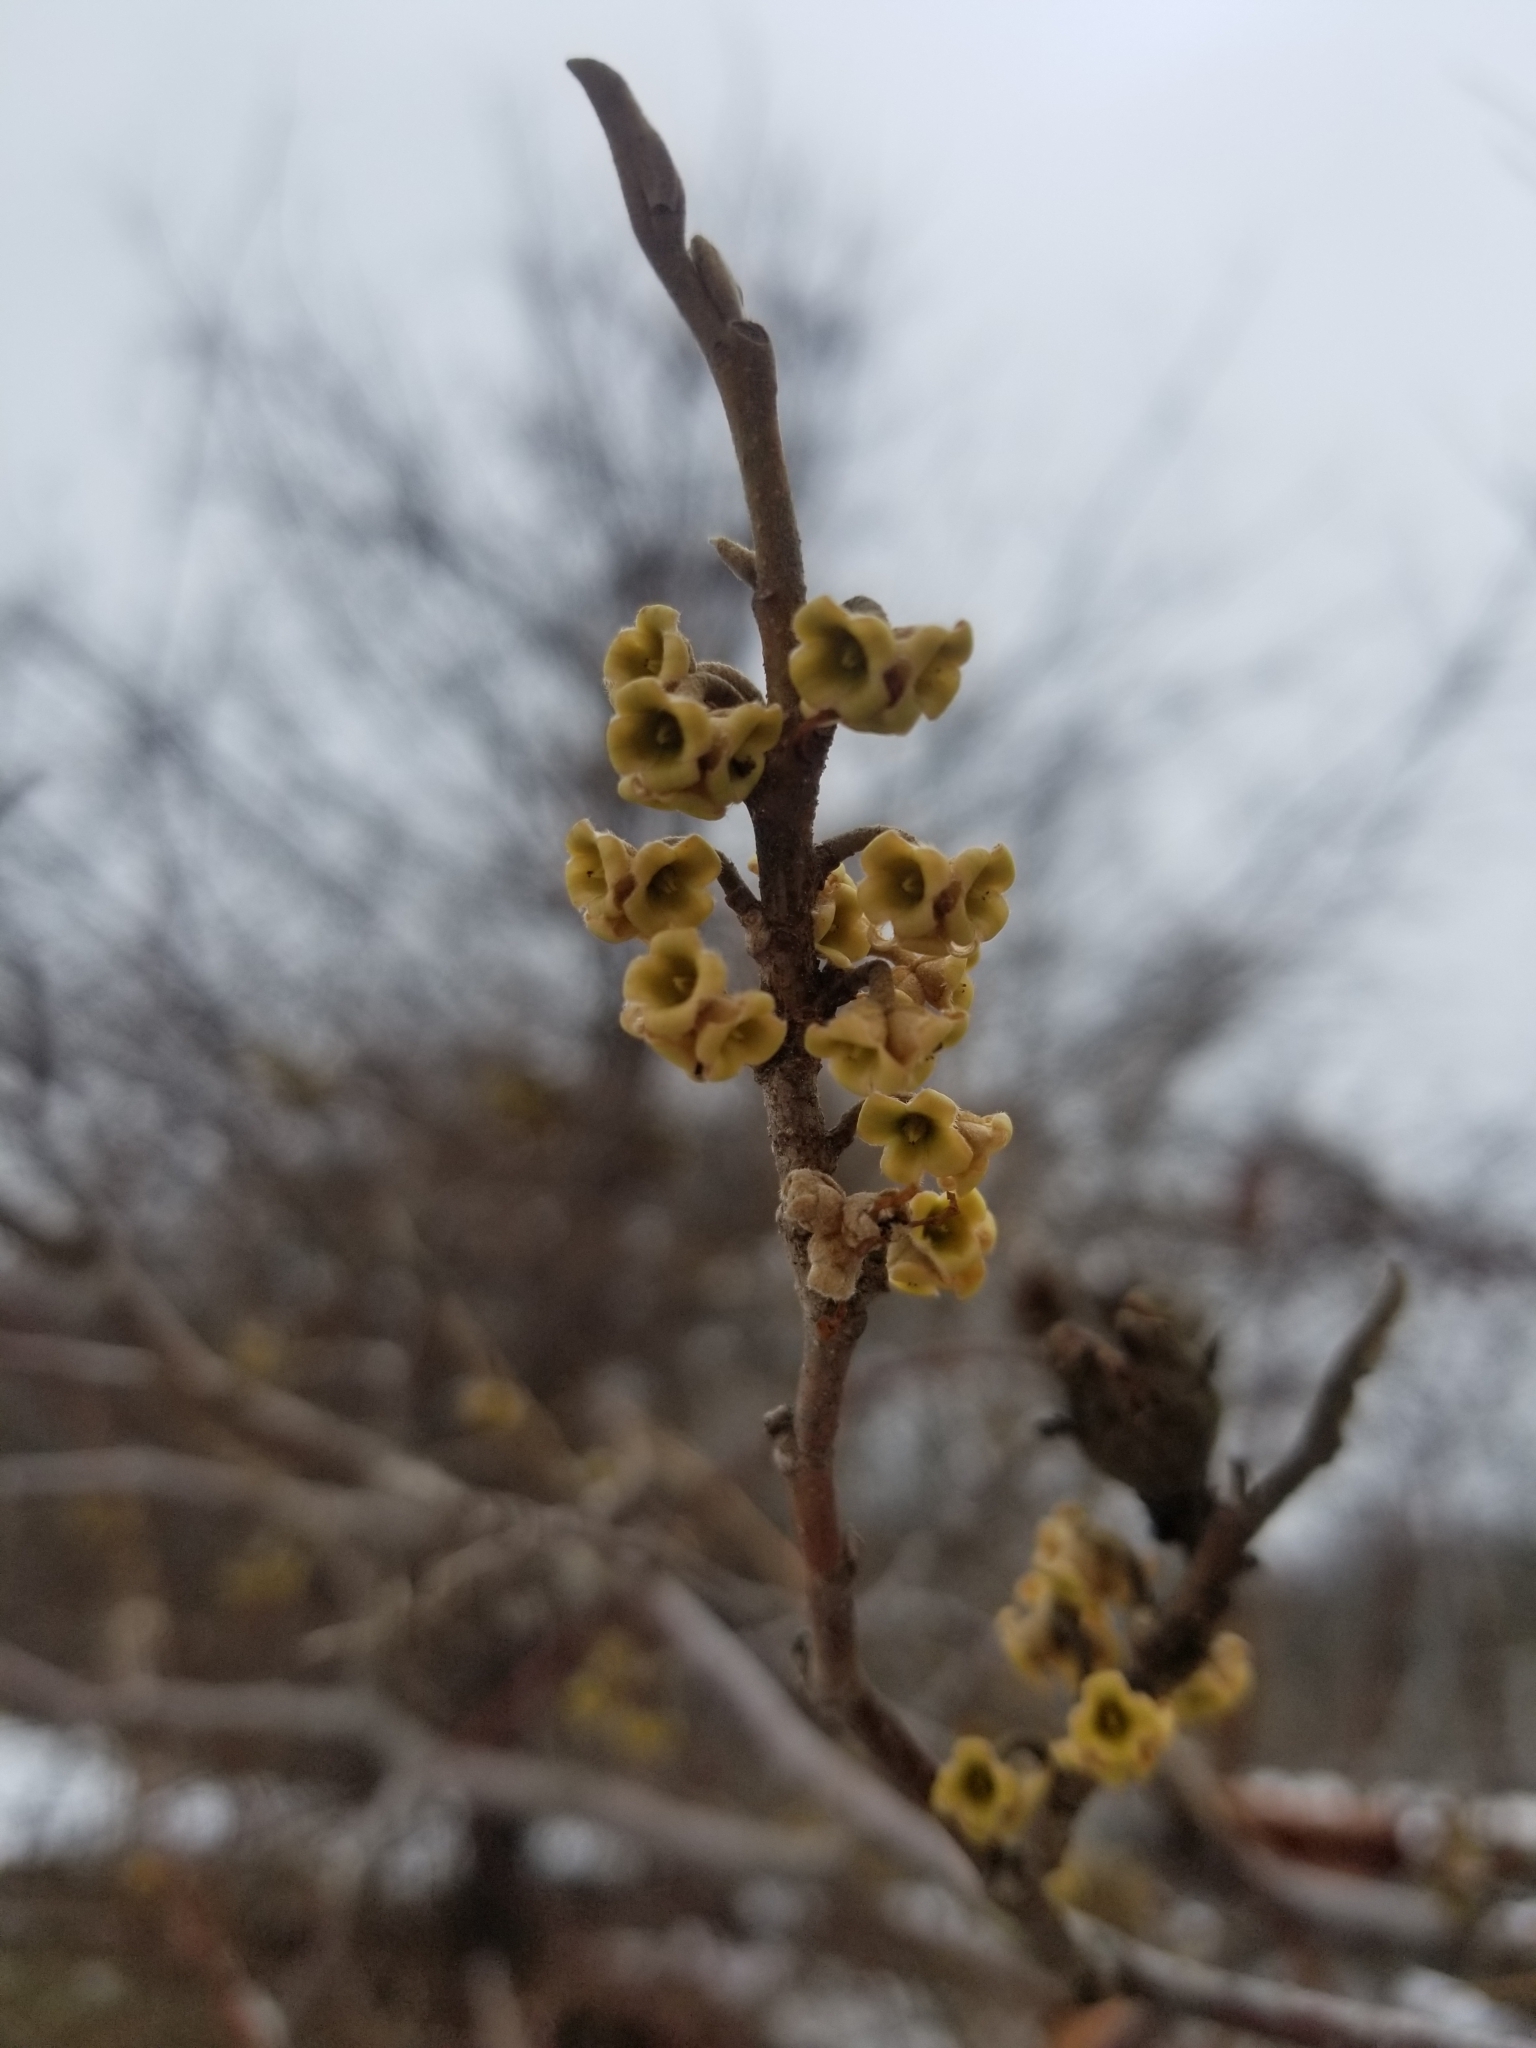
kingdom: Plantae
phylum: Tracheophyta
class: Magnoliopsida
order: Saxifragales
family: Hamamelidaceae
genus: Hamamelis
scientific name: Hamamelis virginiana
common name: Witch-hazel
